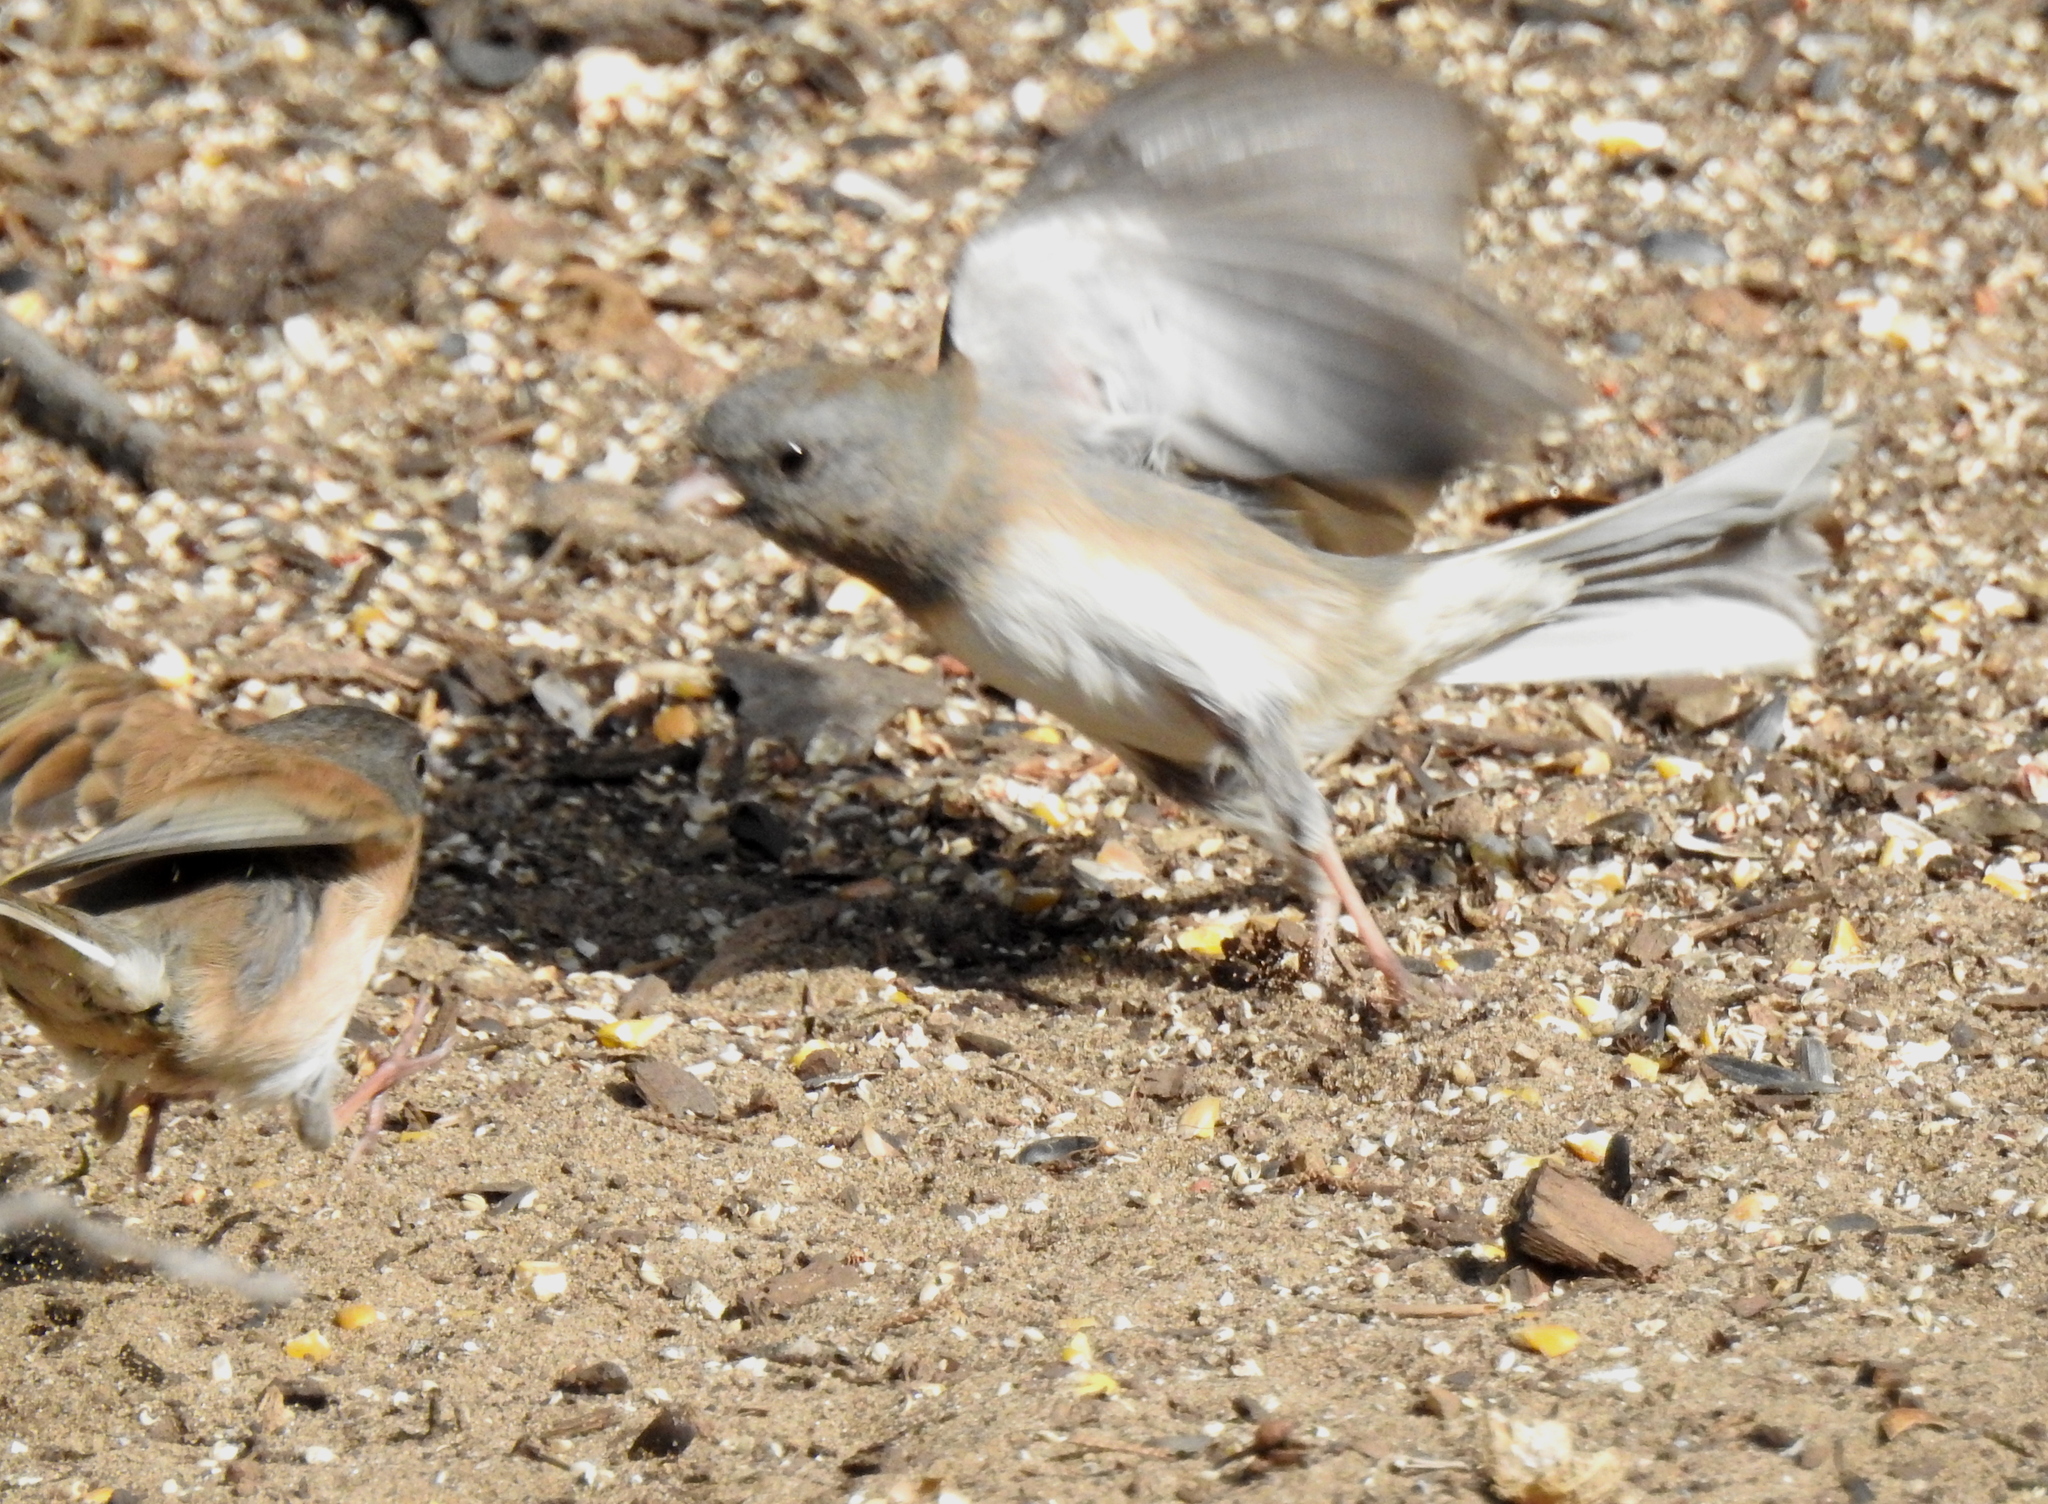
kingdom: Animalia
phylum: Chordata
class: Aves
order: Passeriformes
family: Passerellidae
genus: Junco
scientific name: Junco hyemalis
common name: Dark-eyed junco
